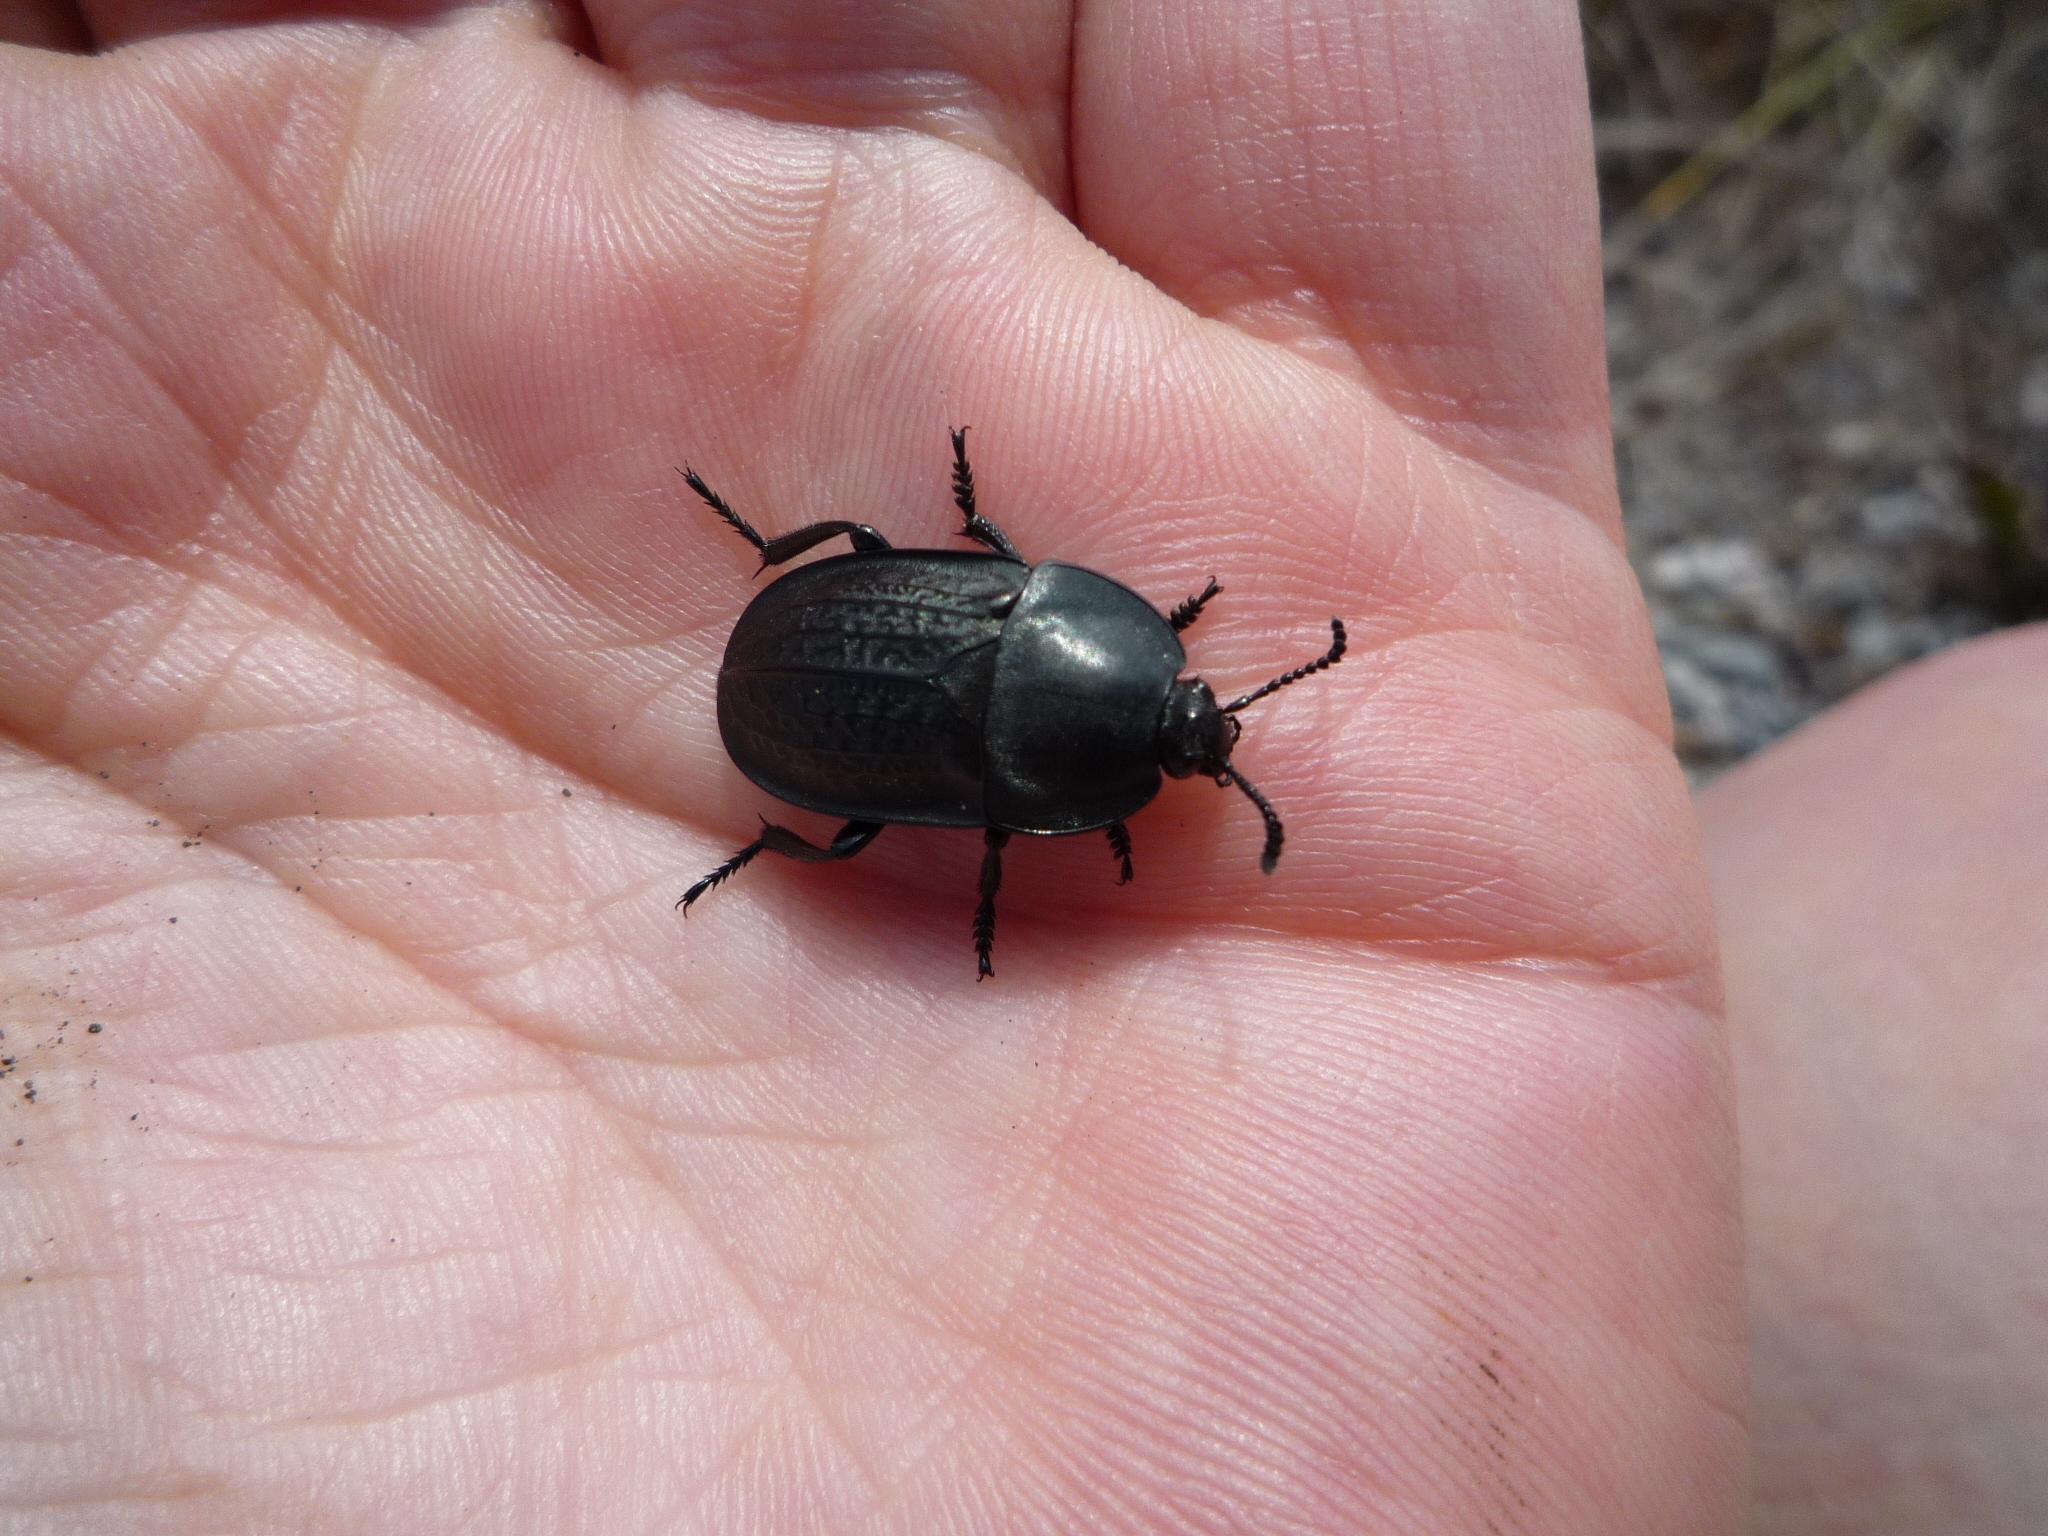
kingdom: Animalia
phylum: Arthropoda
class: Insecta
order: Coleoptera
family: Staphylinidae
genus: Heterosilpha
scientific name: Heterosilpha ramosa
